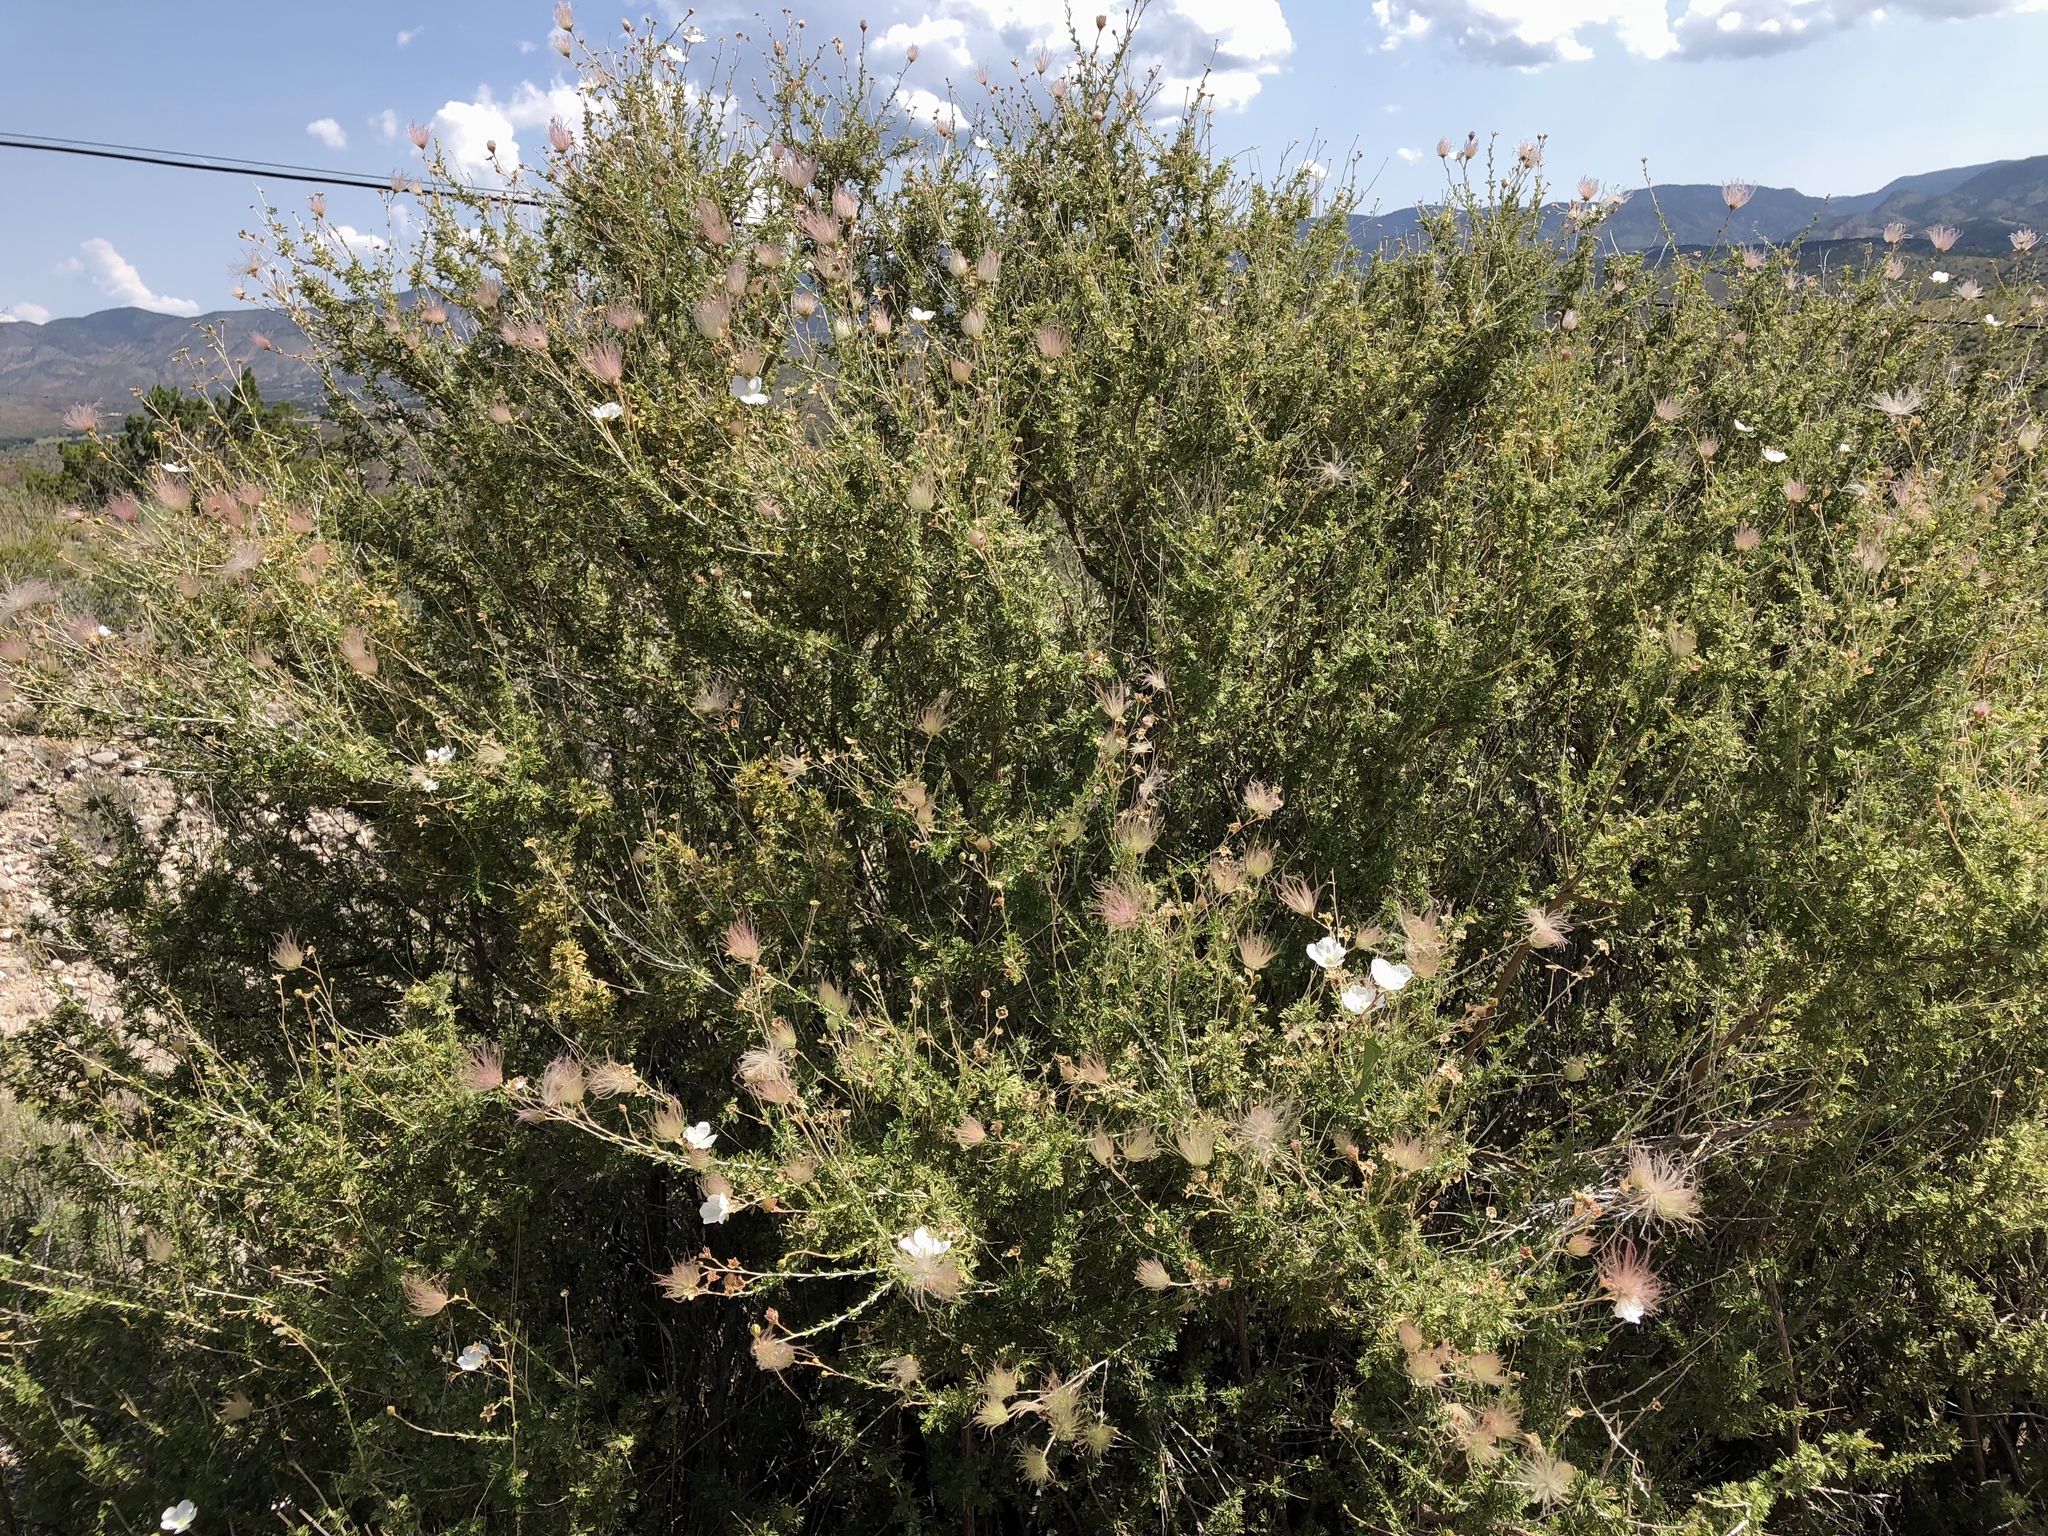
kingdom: Plantae
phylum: Tracheophyta
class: Magnoliopsida
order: Rosales
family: Rosaceae
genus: Fallugia
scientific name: Fallugia paradoxa
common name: Apache-plume
